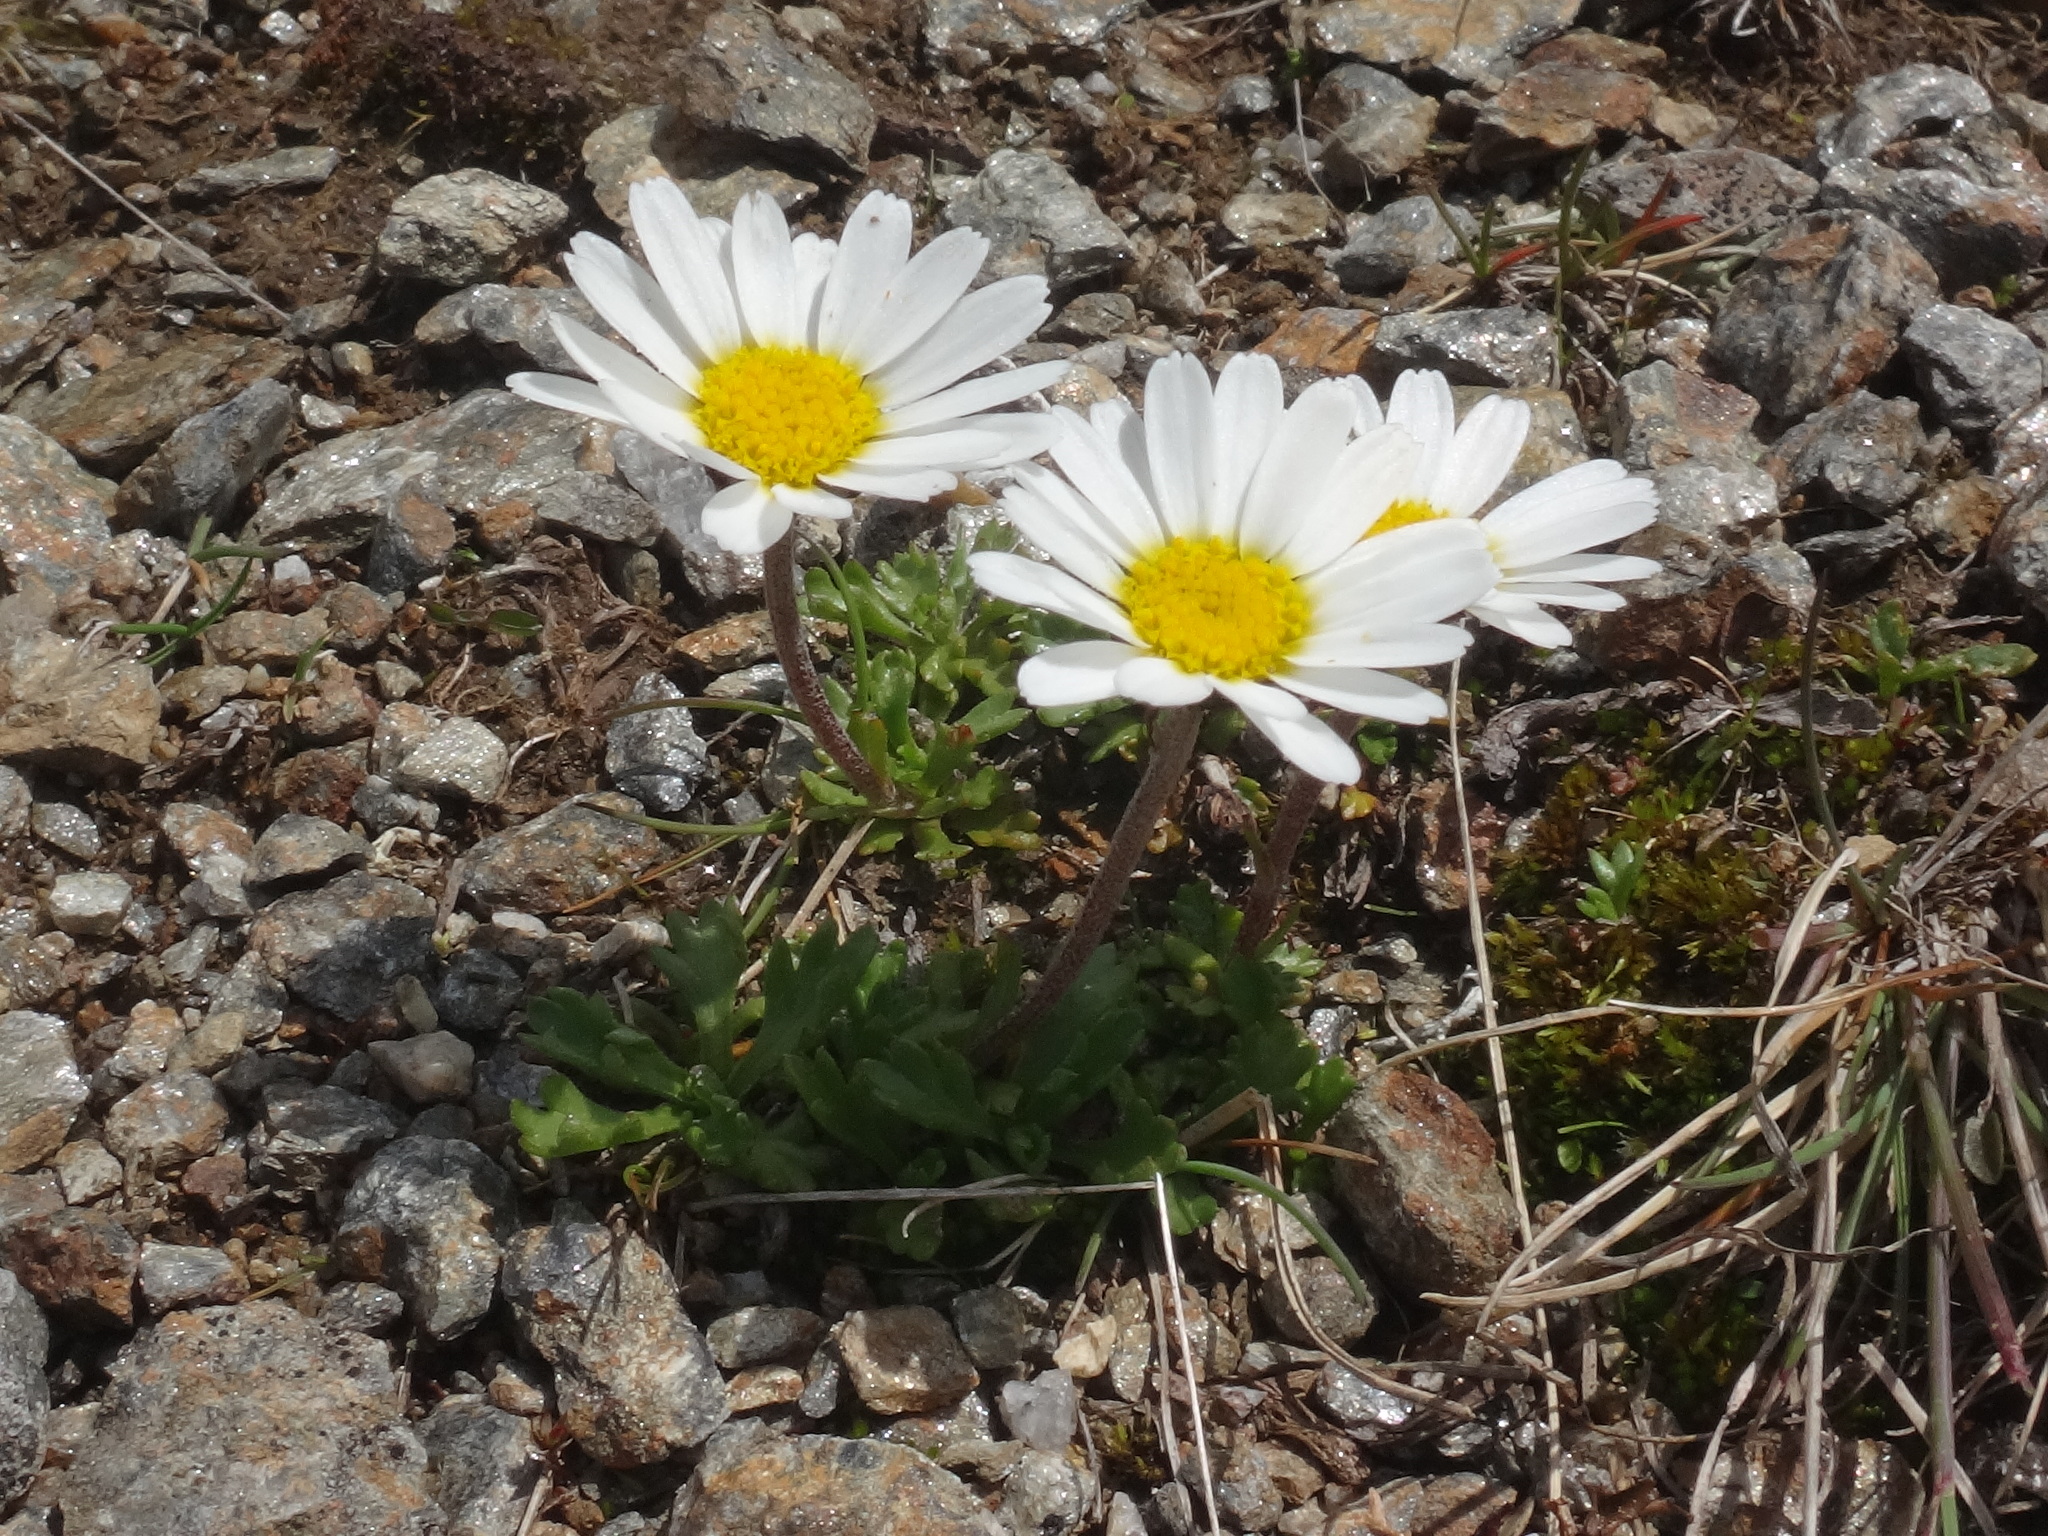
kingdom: Plantae
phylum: Tracheophyta
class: Magnoliopsida
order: Asterales
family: Asteraceae
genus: Leucanthemopsis
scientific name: Leucanthemopsis alpina
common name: Alpine moon daisy
